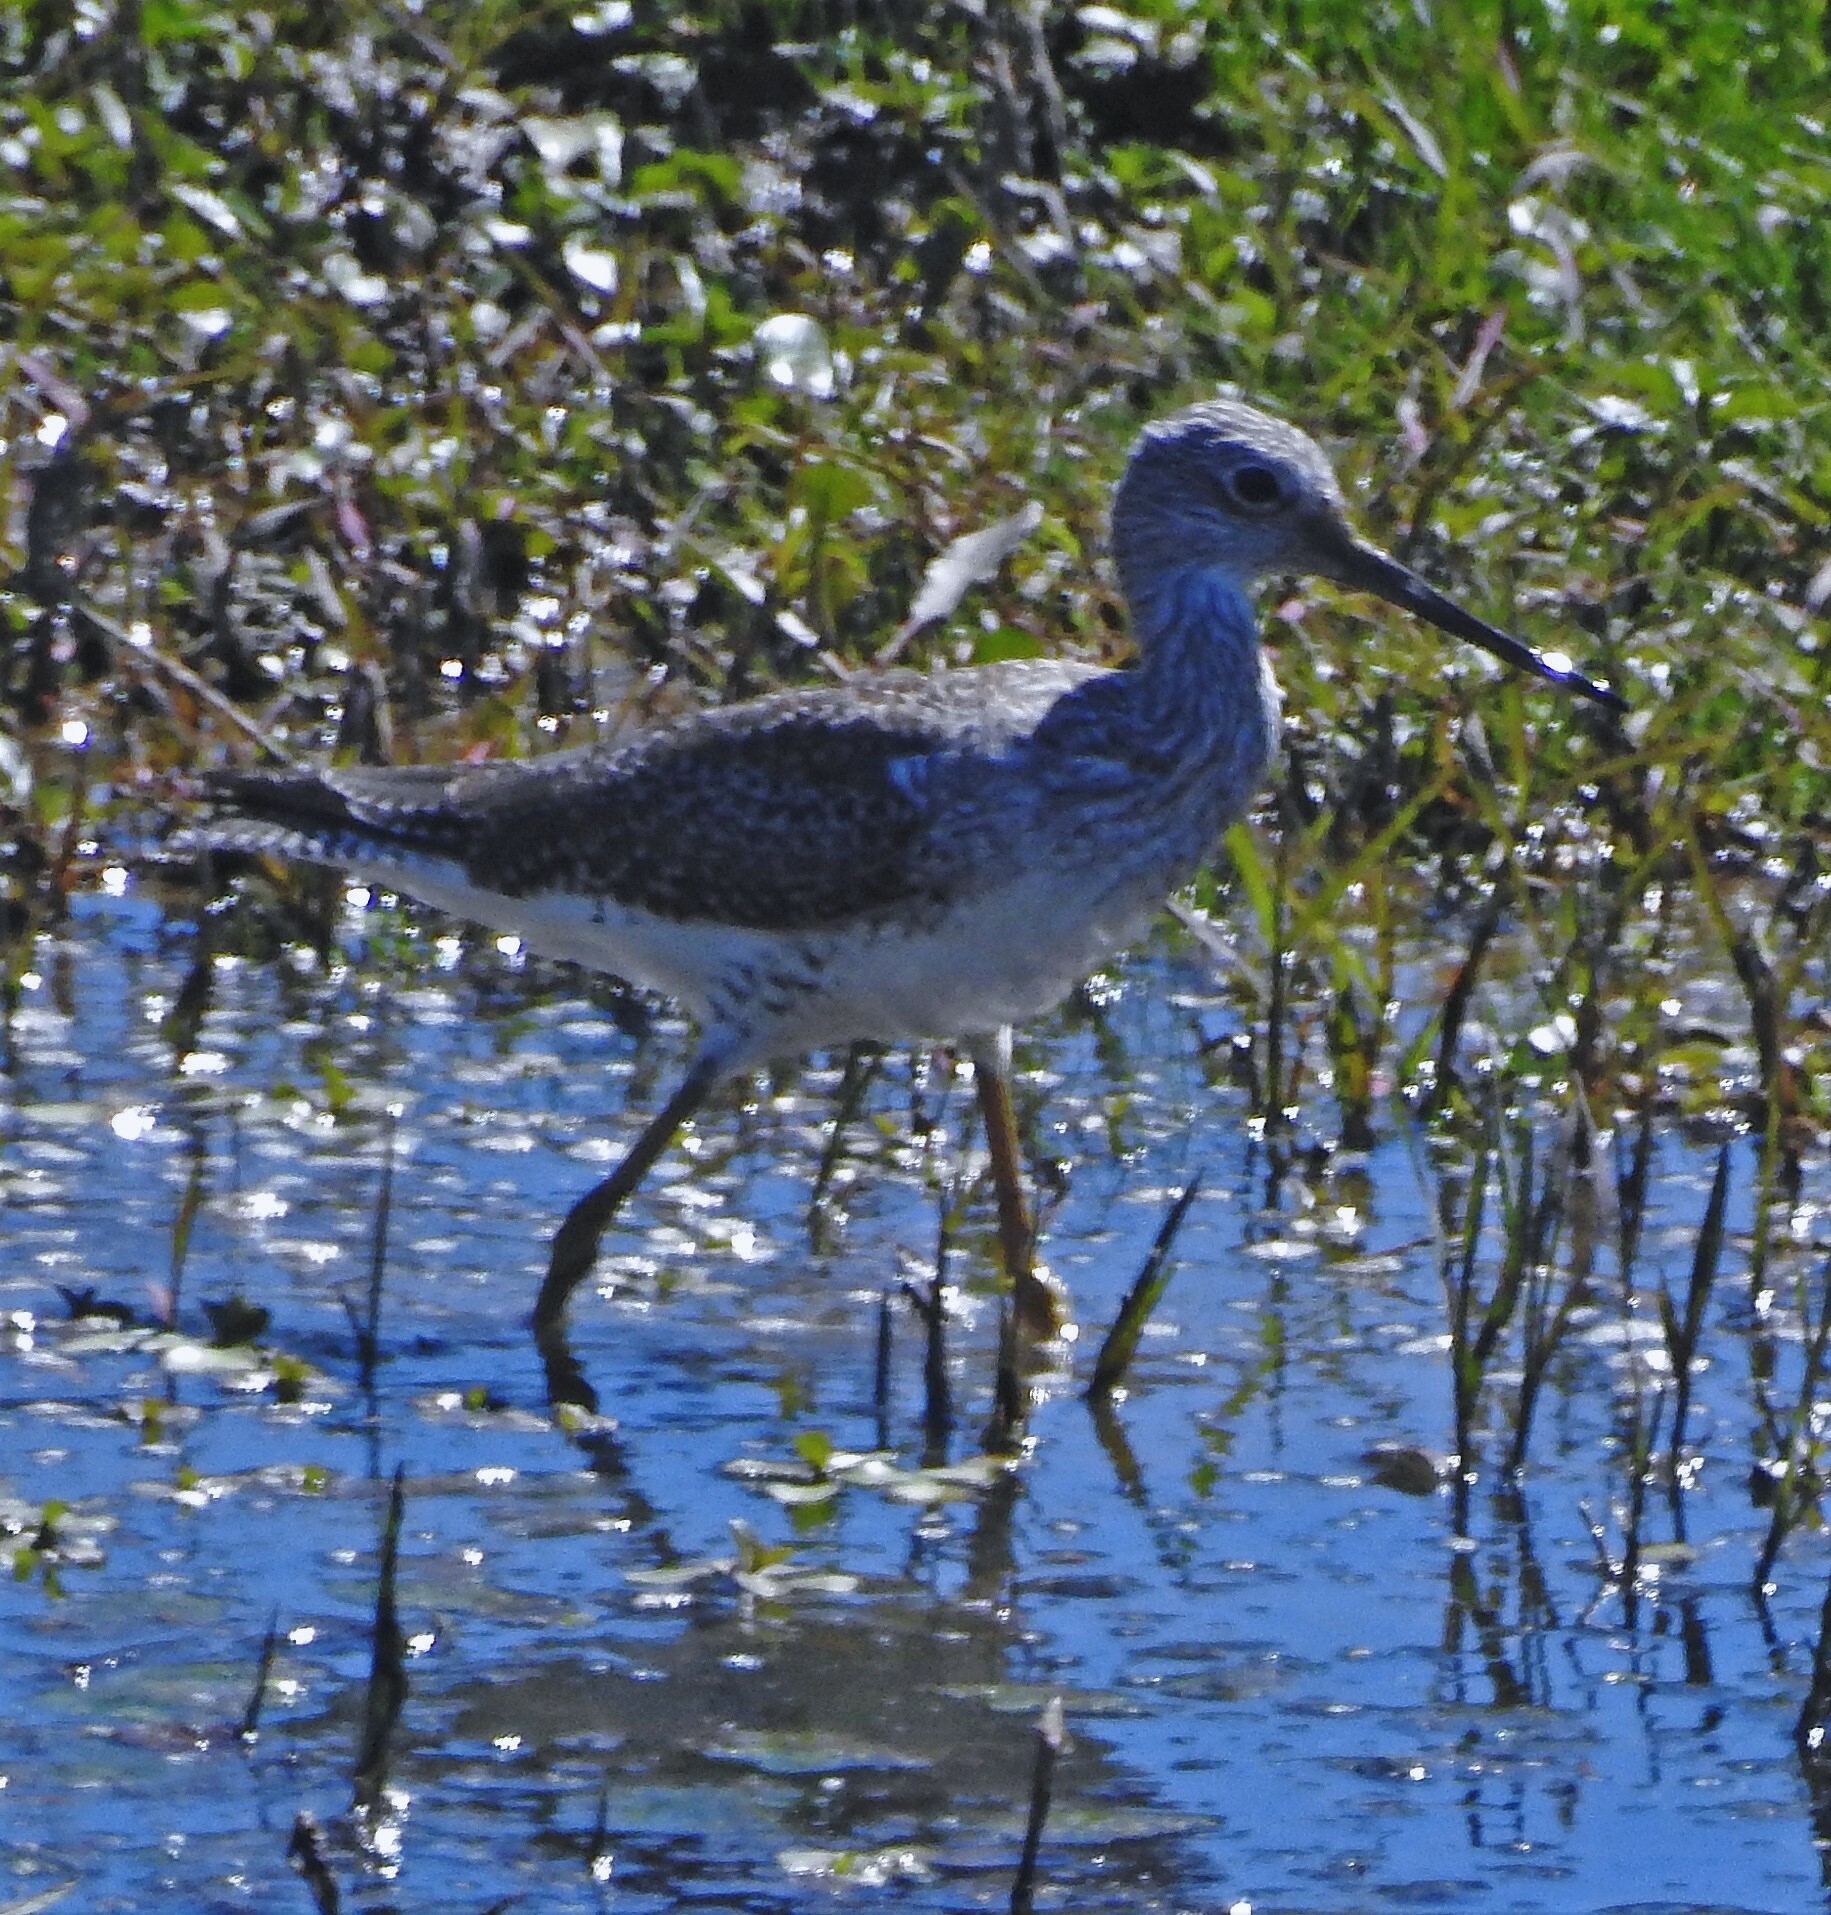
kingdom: Animalia
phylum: Chordata
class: Aves
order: Charadriiformes
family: Scolopacidae
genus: Tringa
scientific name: Tringa melanoleuca
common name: Greater yellowlegs
